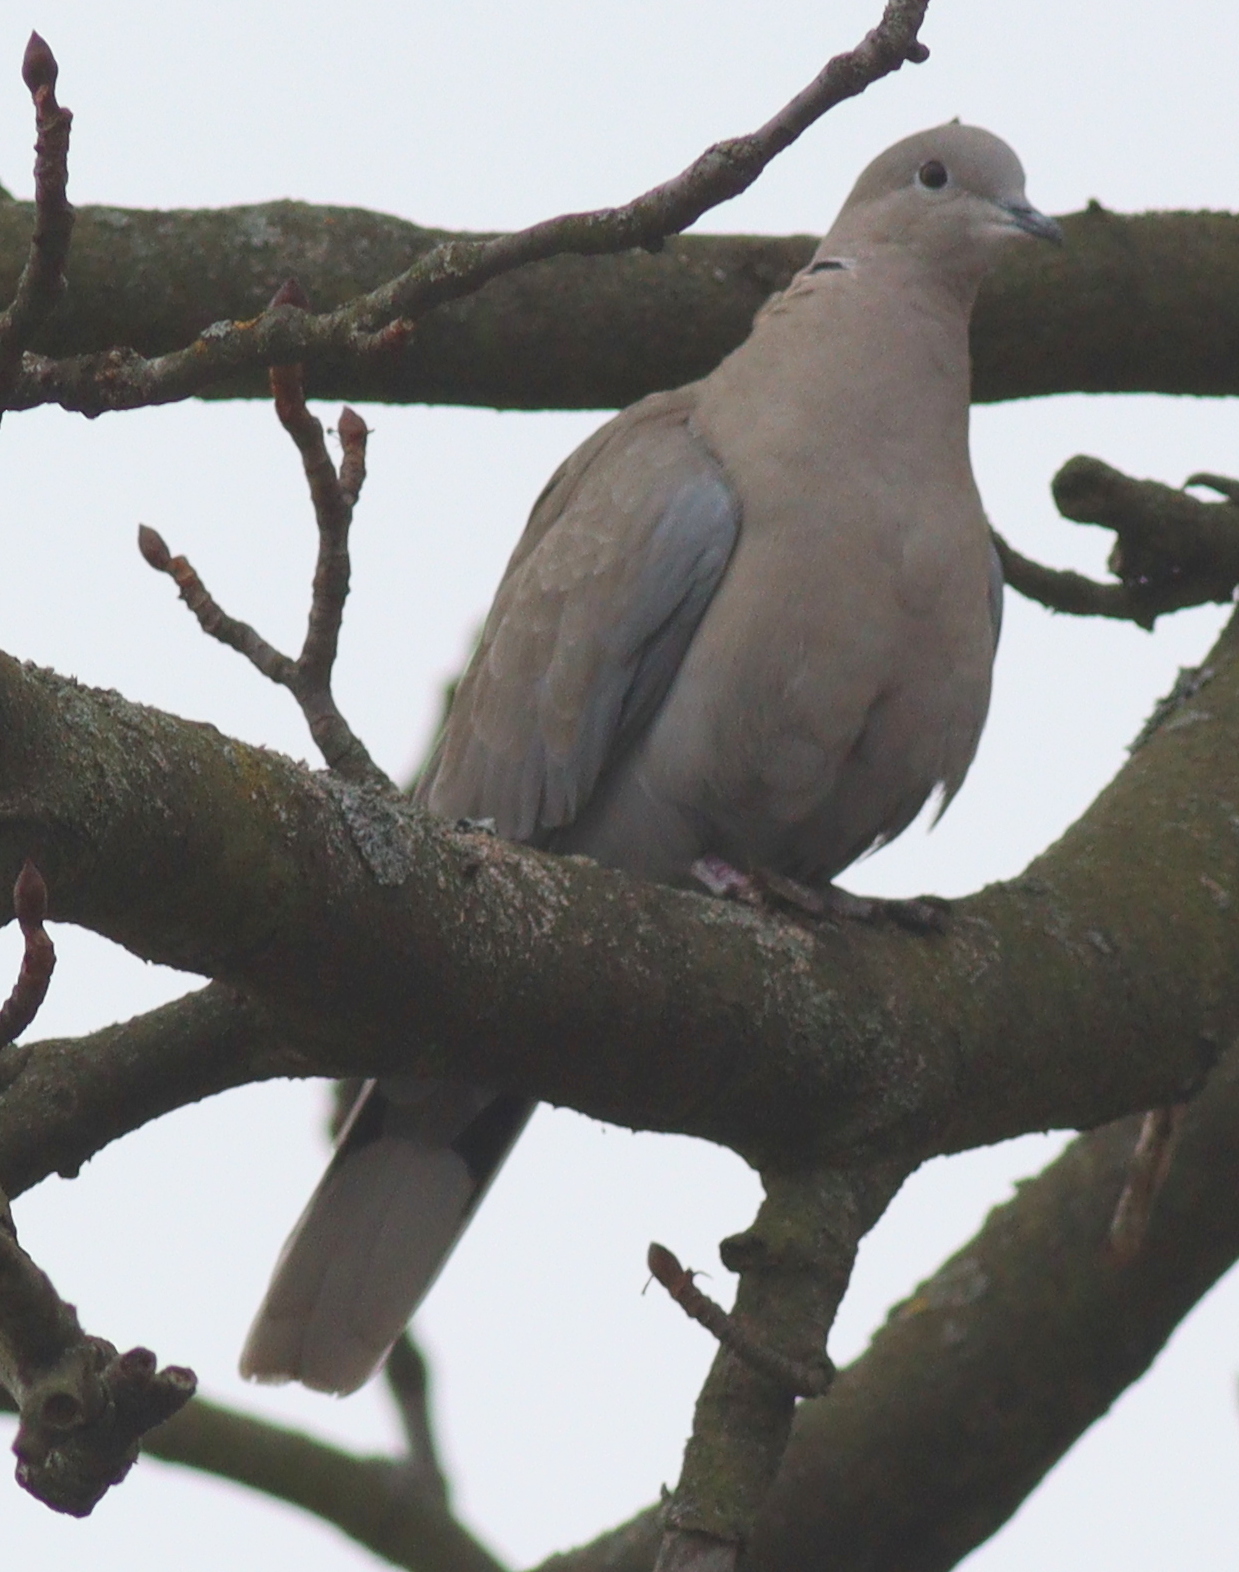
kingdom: Animalia
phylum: Chordata
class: Aves
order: Columbiformes
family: Columbidae
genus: Streptopelia
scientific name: Streptopelia decaocto
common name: Eurasian collared dove
